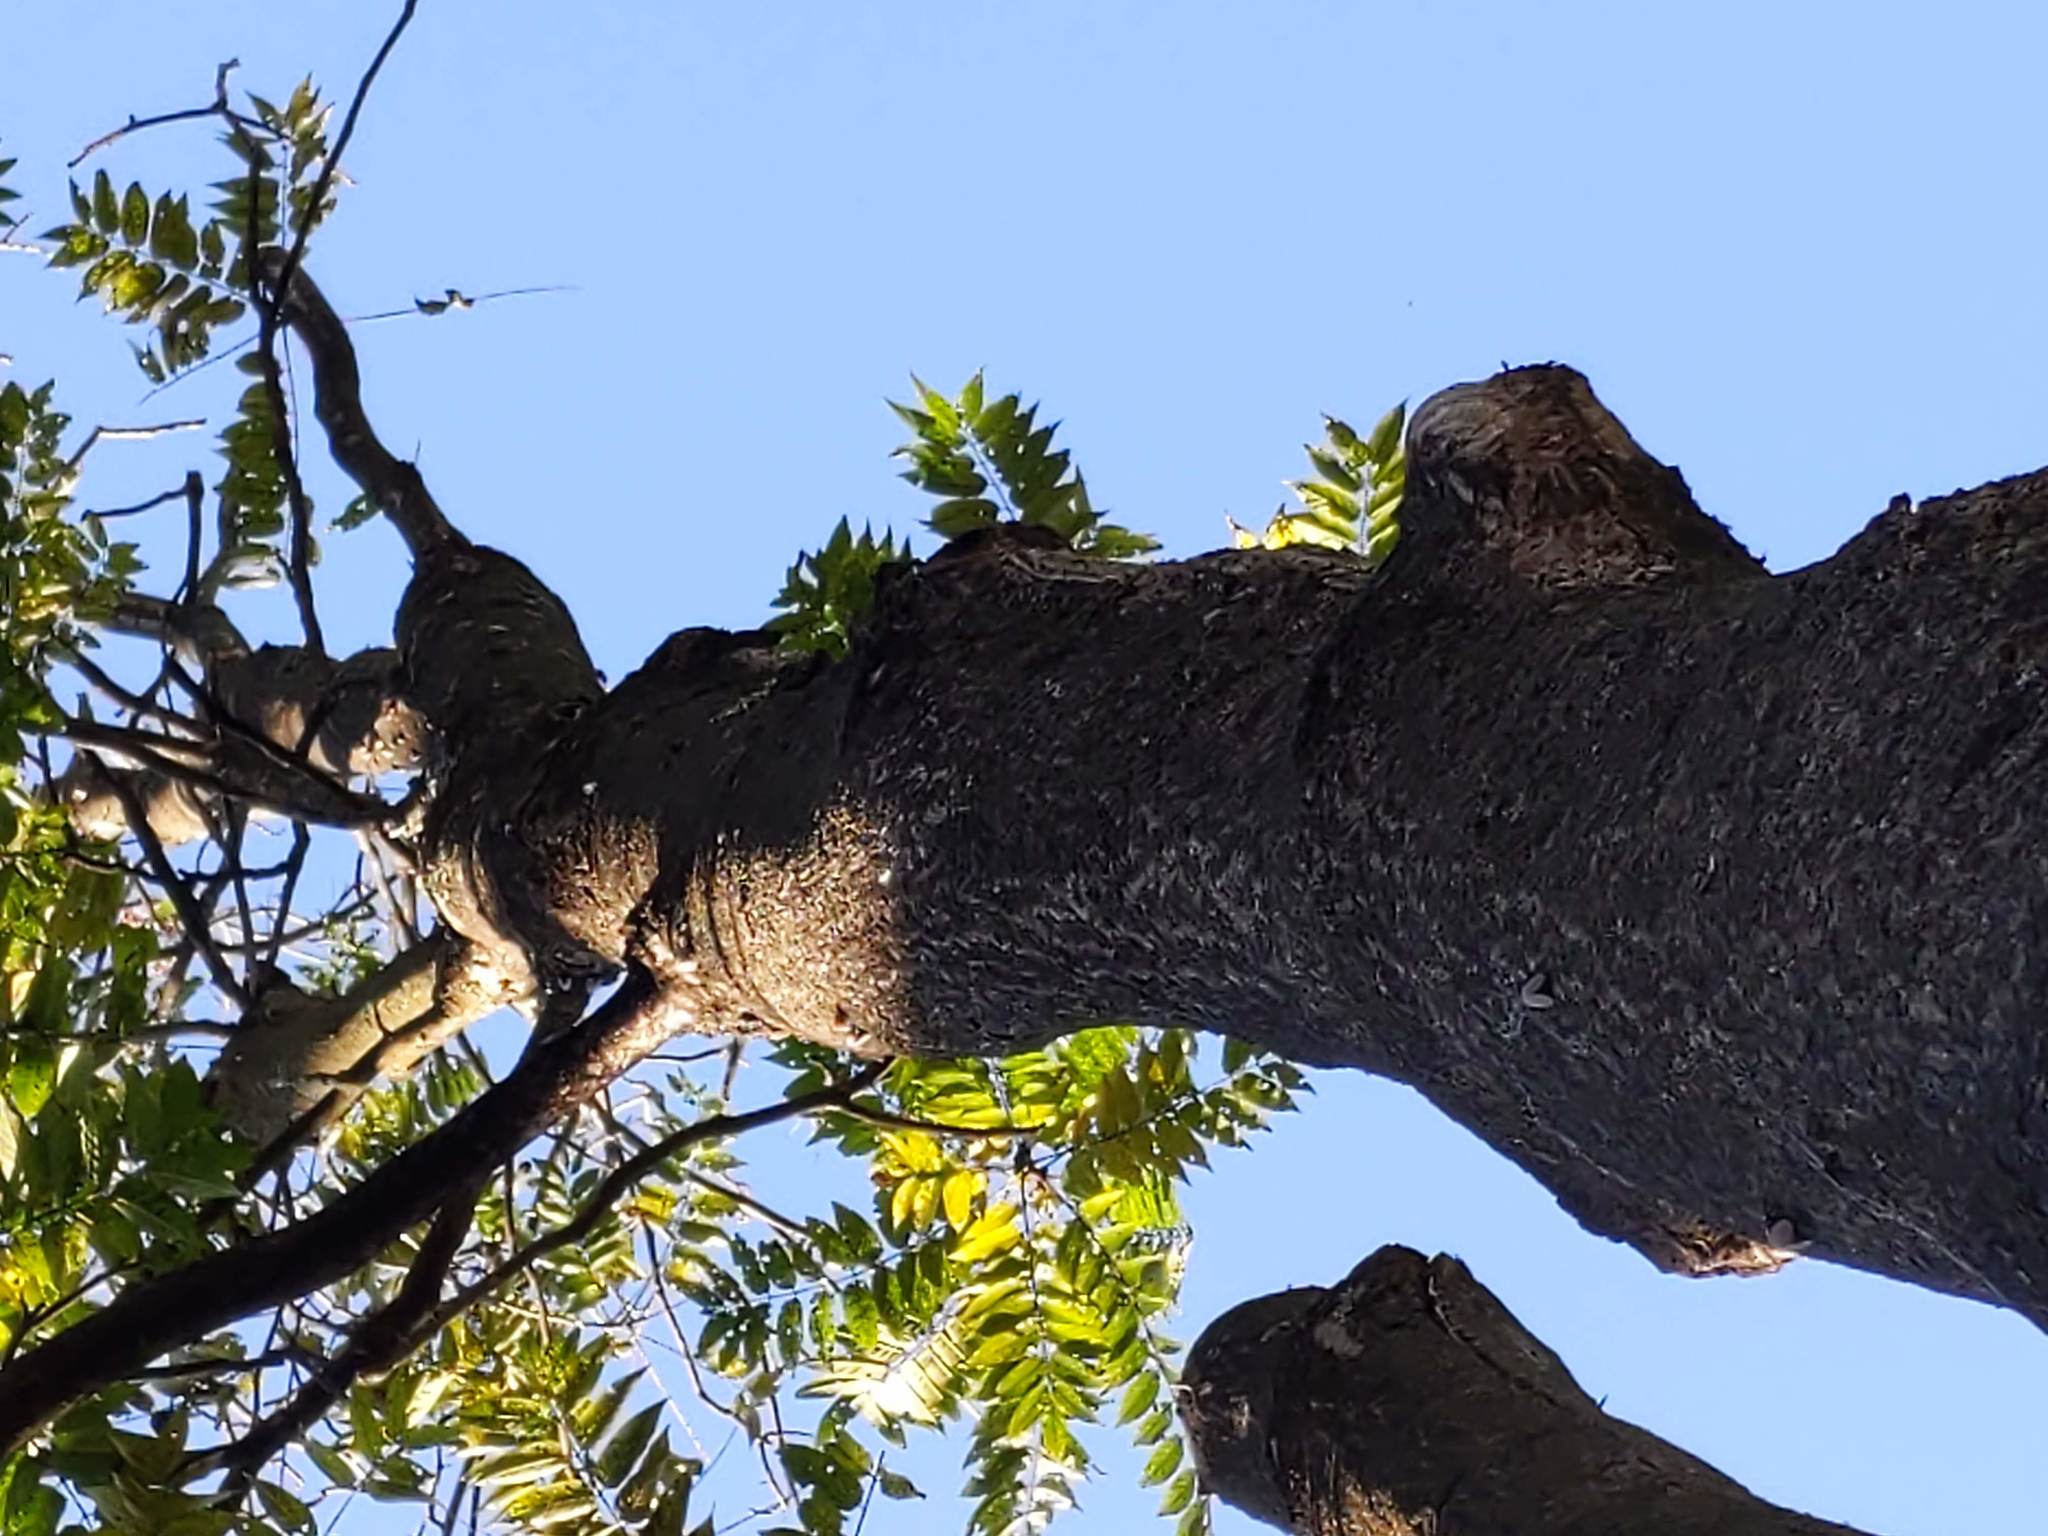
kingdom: Plantae
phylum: Tracheophyta
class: Magnoliopsida
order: Sapindales
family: Simaroubaceae
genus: Ailanthus
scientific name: Ailanthus altissima
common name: Tree-of-heaven
